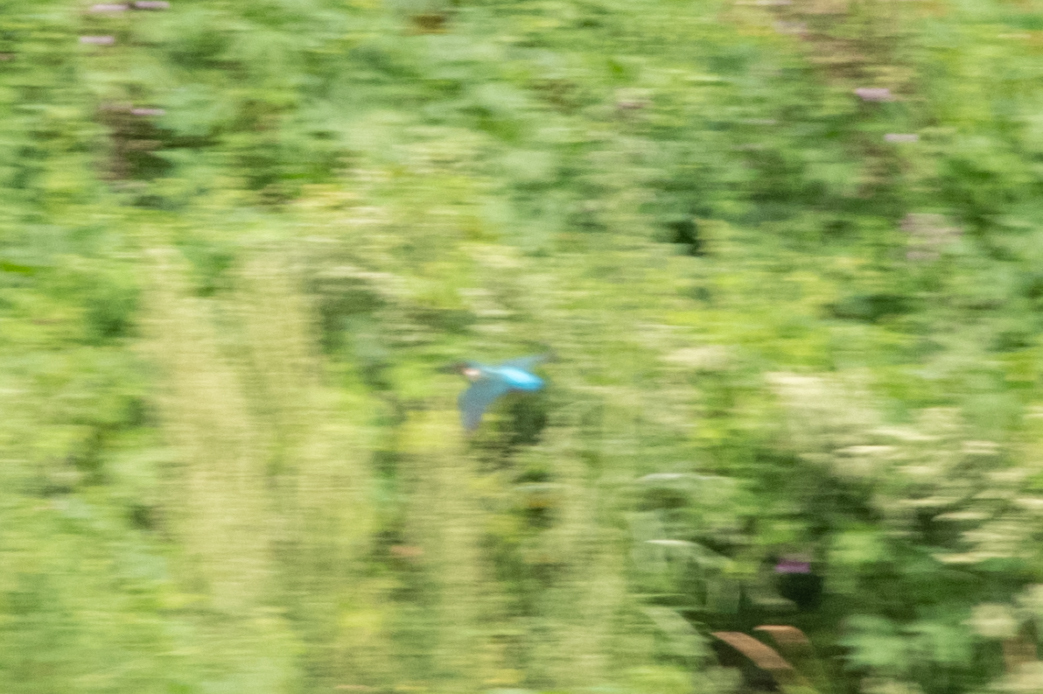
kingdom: Animalia
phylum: Chordata
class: Aves
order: Coraciiformes
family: Alcedinidae
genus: Alcedo
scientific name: Alcedo atthis
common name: Common kingfisher
